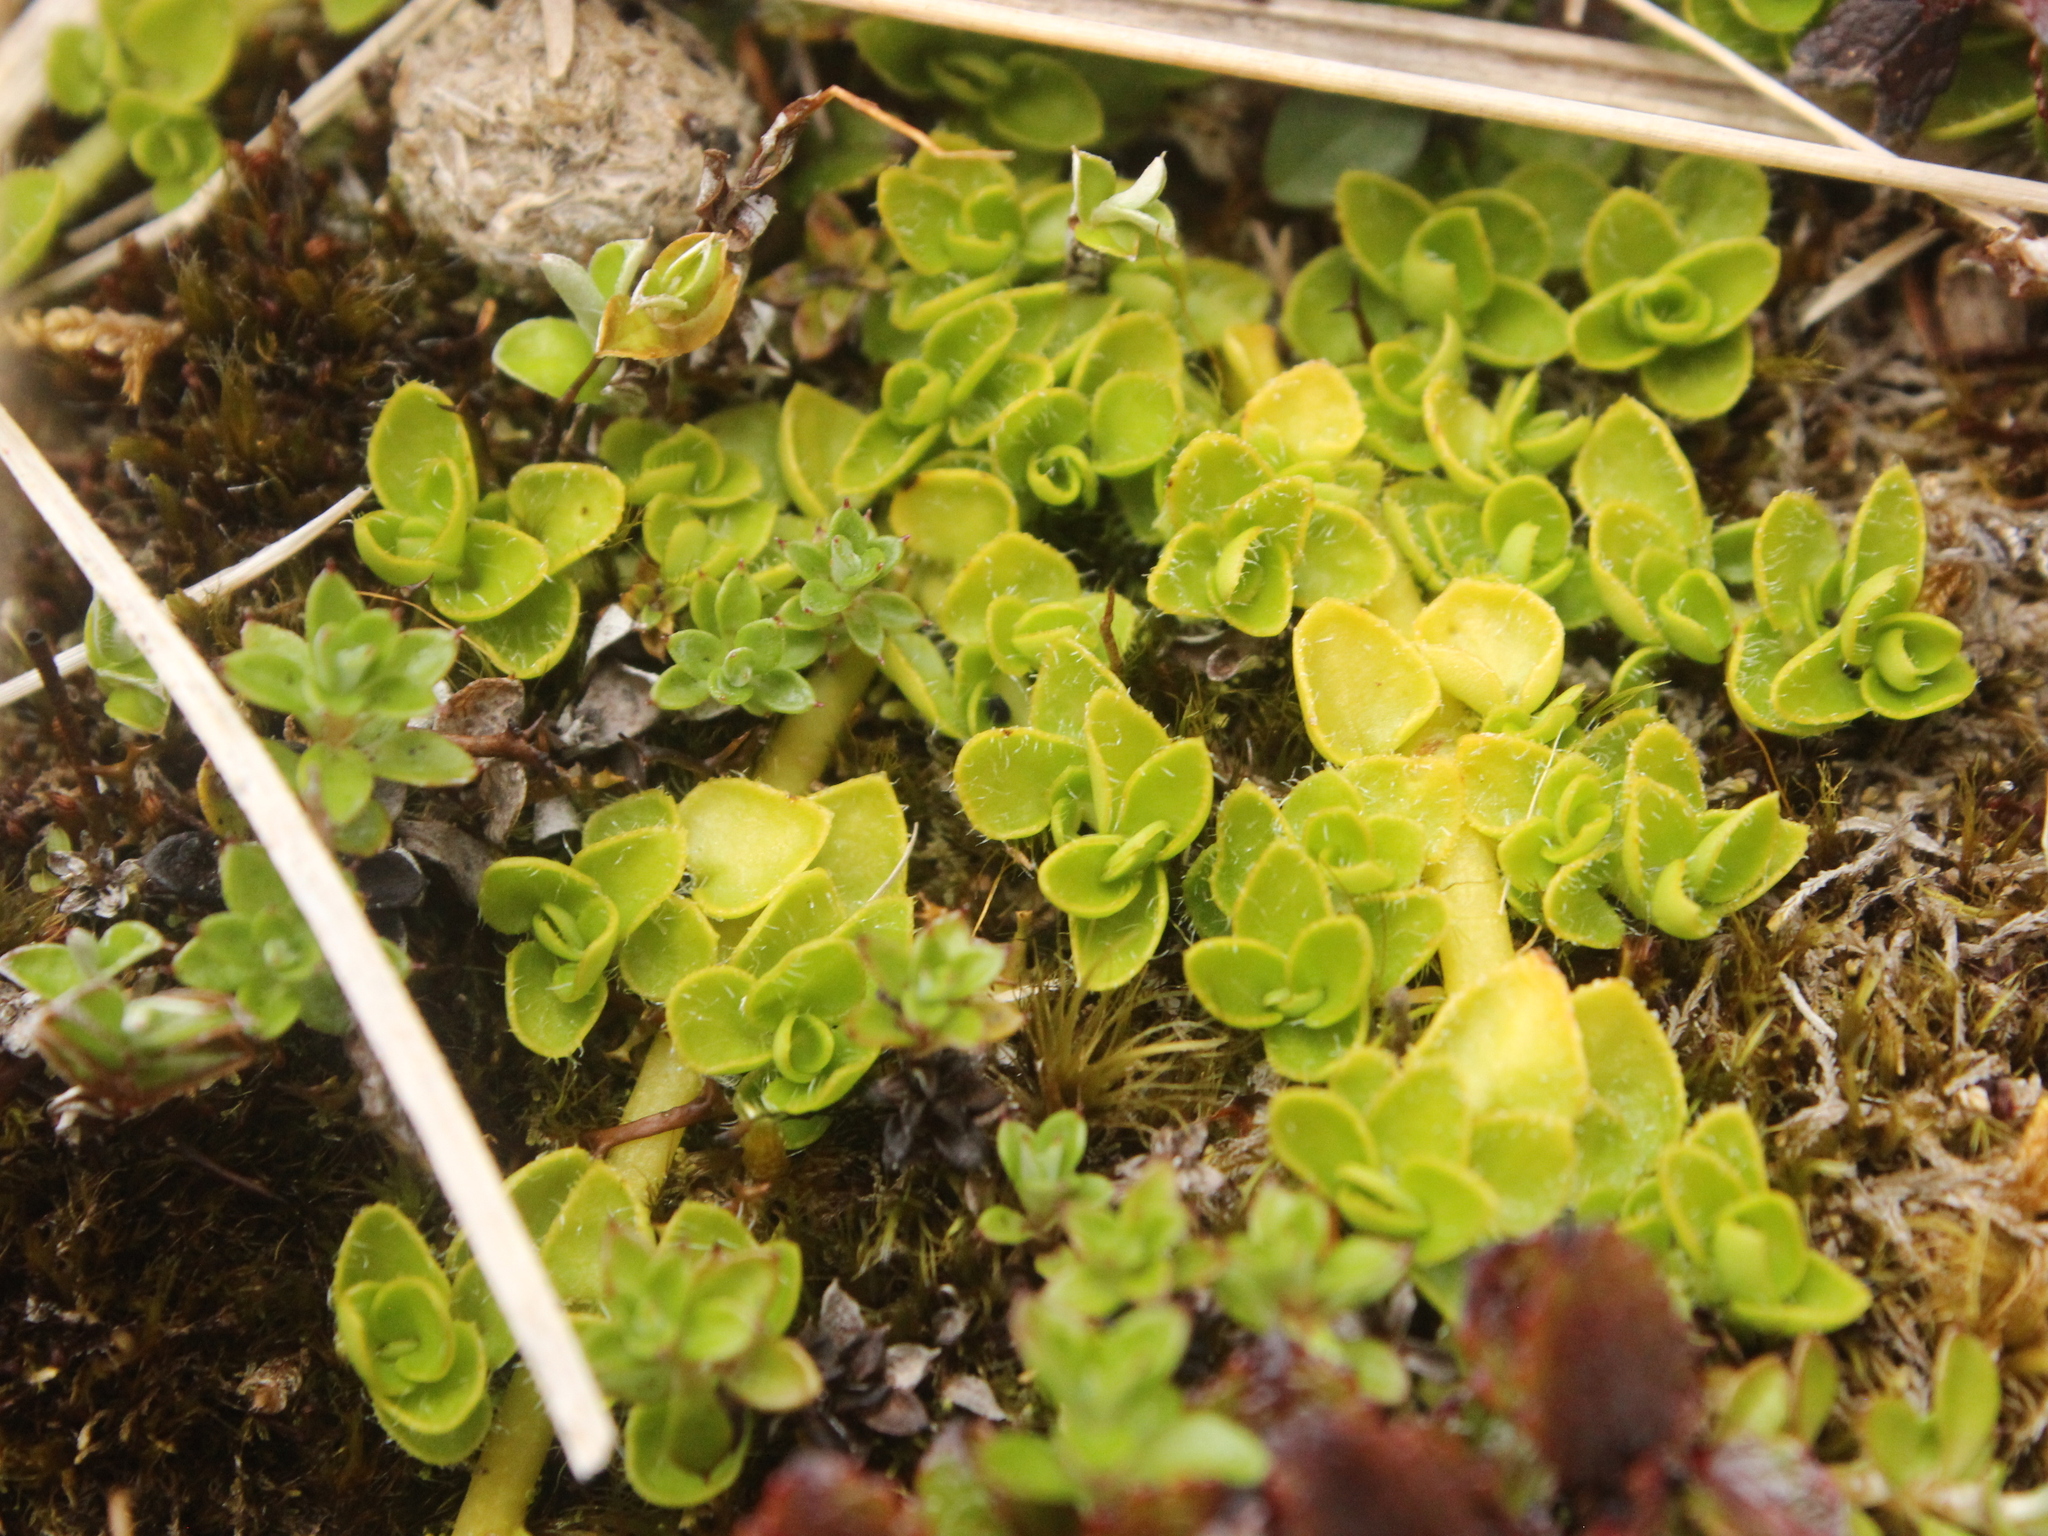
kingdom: Plantae
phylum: Tracheophyta
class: Magnoliopsida
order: Gentianales
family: Rubiaceae
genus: Nertera
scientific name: Nertera ciliata
